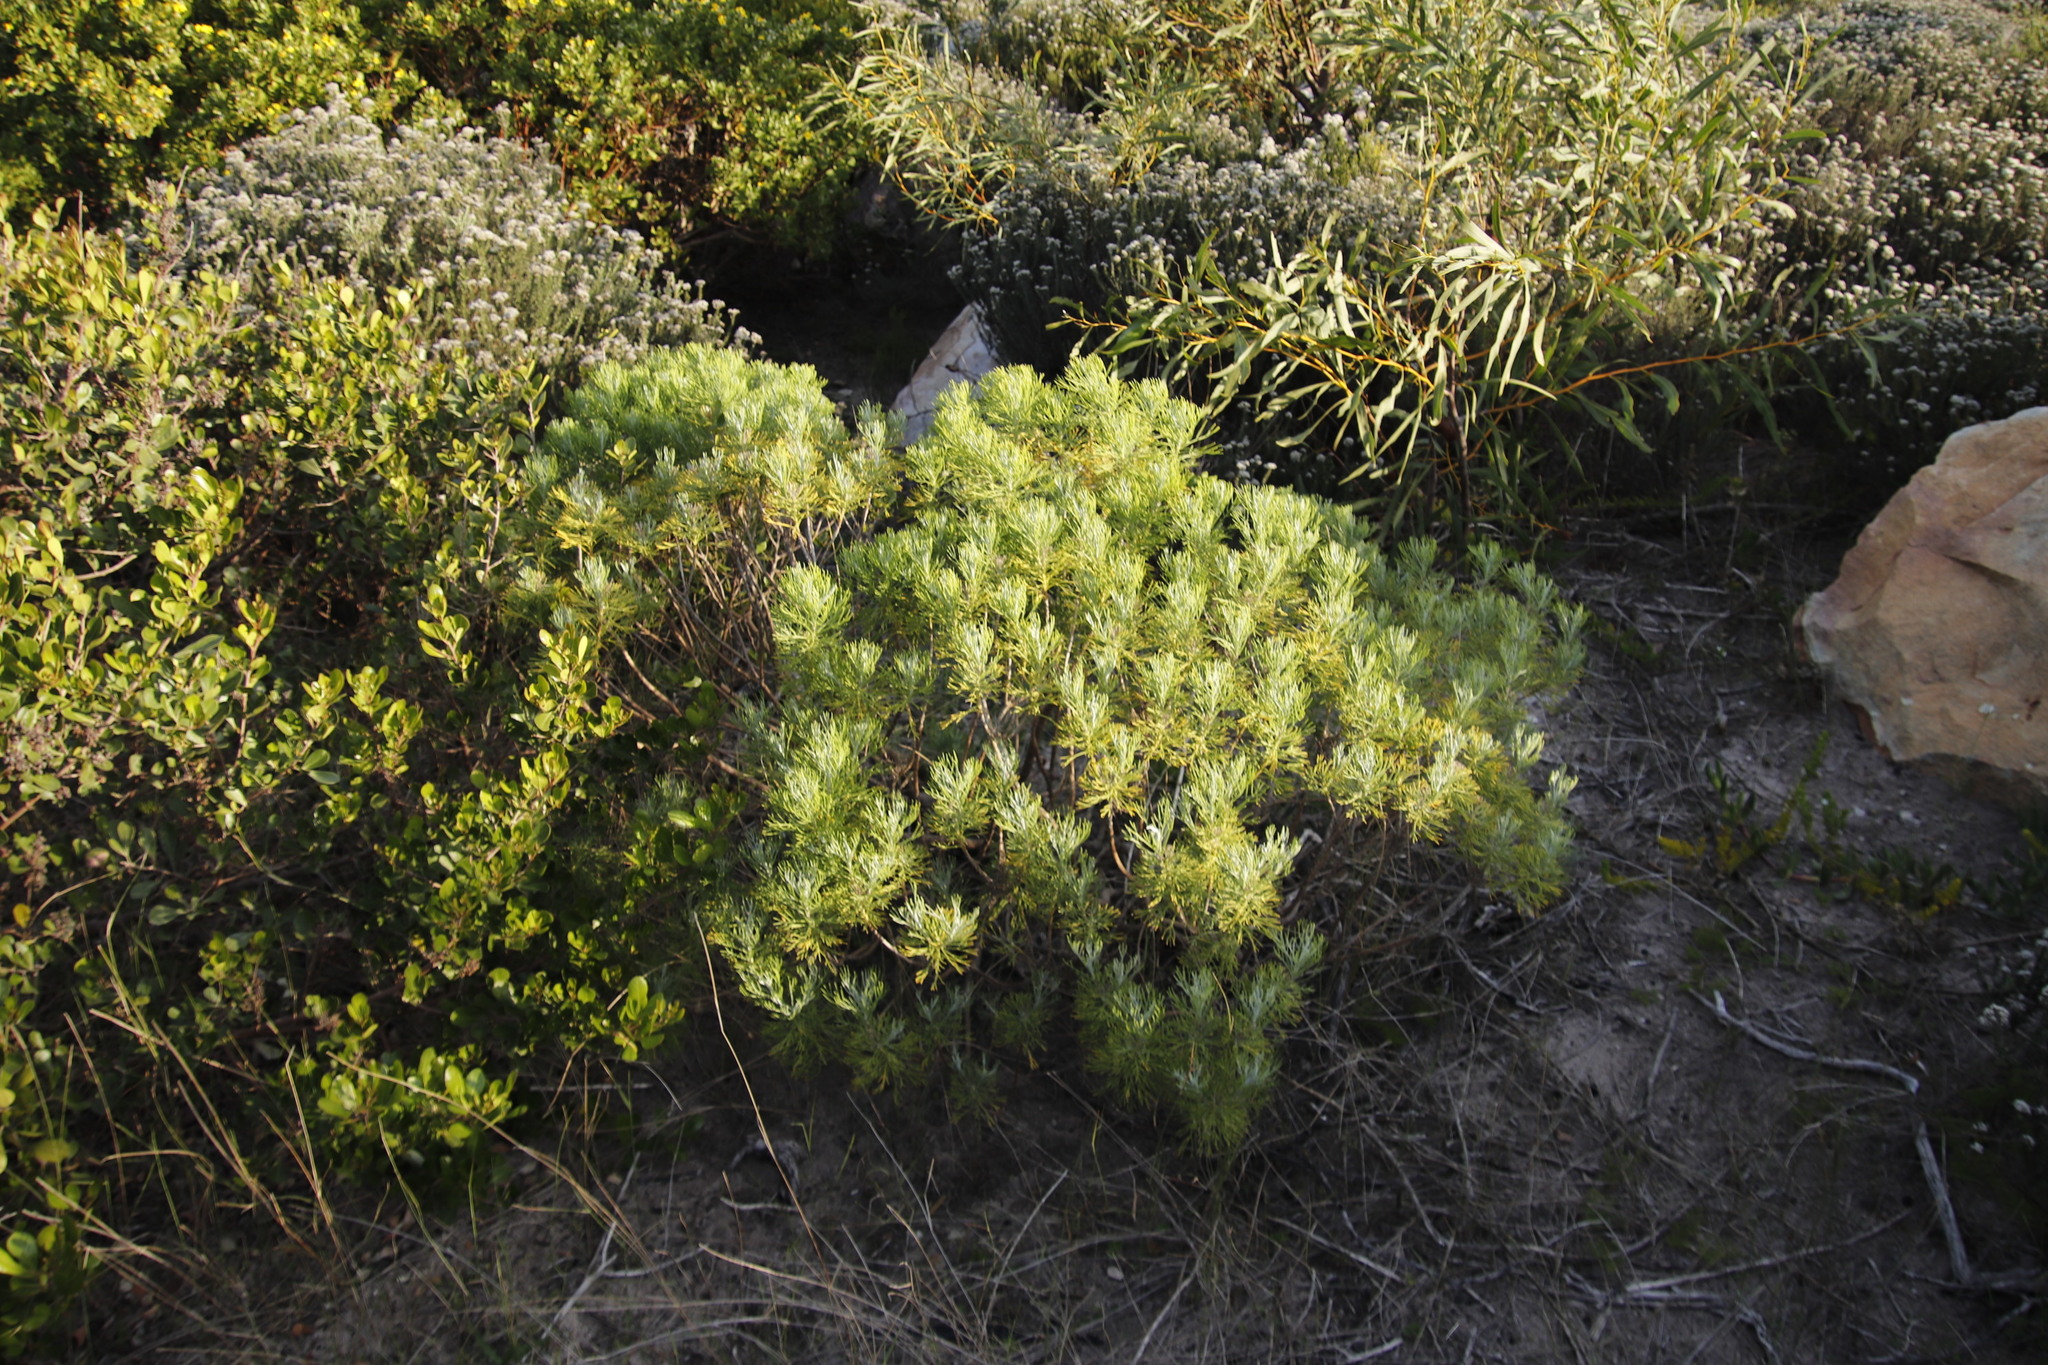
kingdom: Plantae
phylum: Tracheophyta
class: Magnoliopsida
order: Asterales
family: Asteraceae
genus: Hymenolepis
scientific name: Hymenolepis crithmifolia
